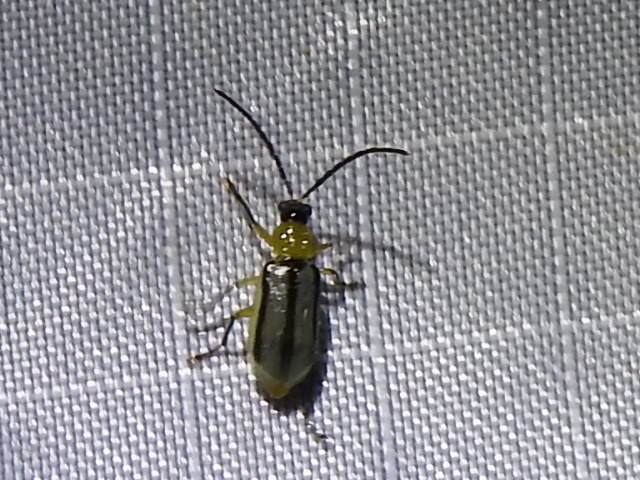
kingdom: Animalia
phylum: Arthropoda
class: Insecta
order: Coleoptera
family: Chrysomelidae
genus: Diabrotica
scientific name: Diabrotica longicornis
